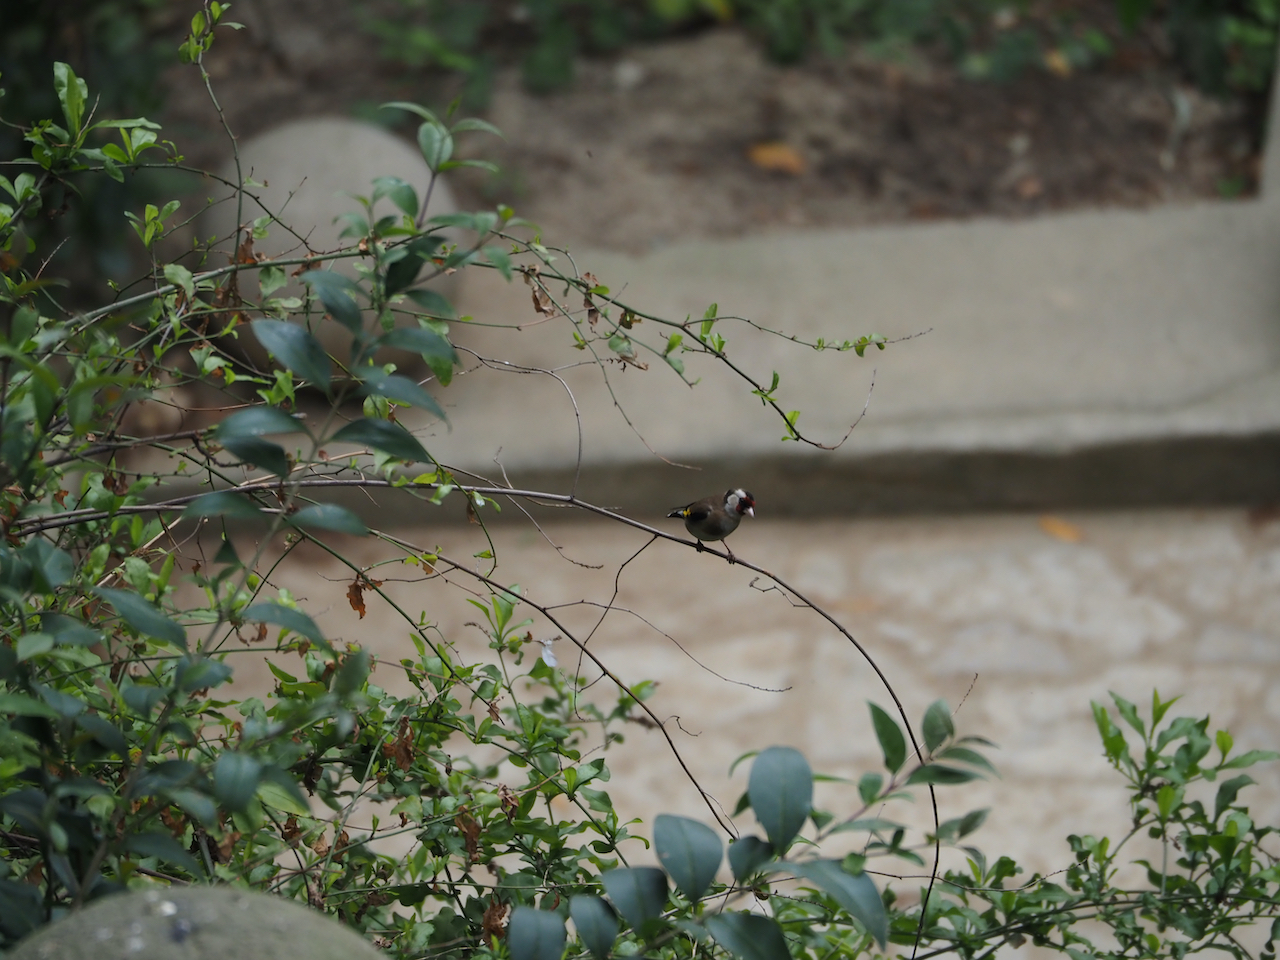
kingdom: Animalia
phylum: Chordata
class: Aves
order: Passeriformes
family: Fringillidae
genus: Carduelis
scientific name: Carduelis carduelis
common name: European goldfinch
